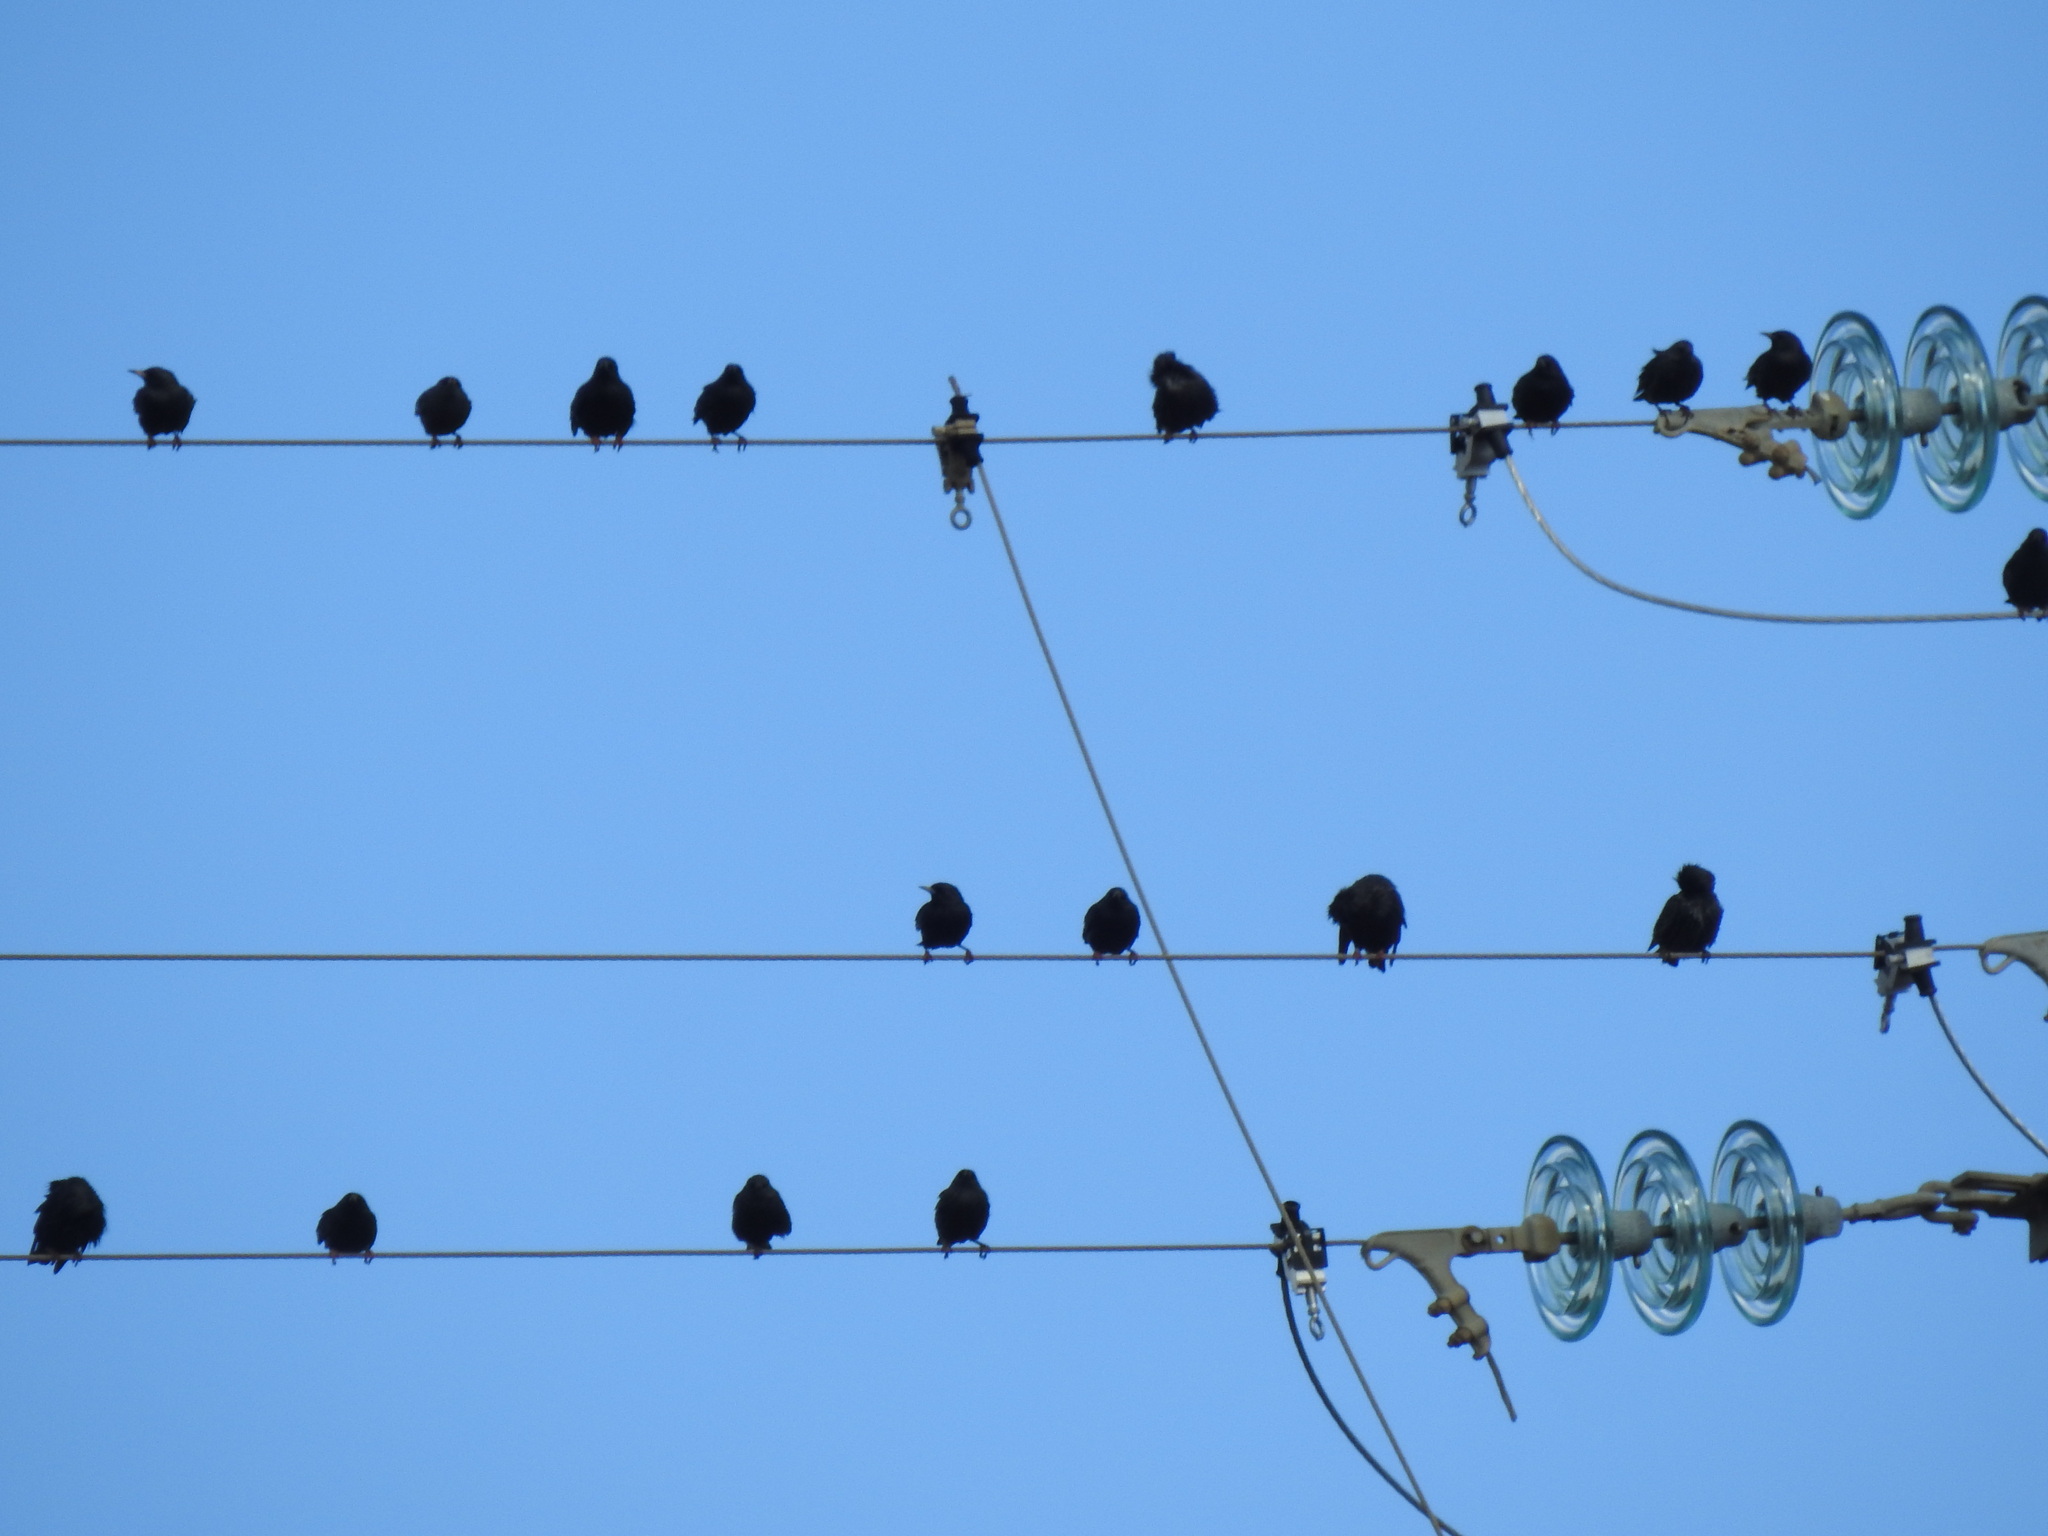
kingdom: Animalia
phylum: Chordata
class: Aves
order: Passeriformes
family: Sturnidae
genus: Sturnus
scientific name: Sturnus unicolor
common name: Spotless starling
